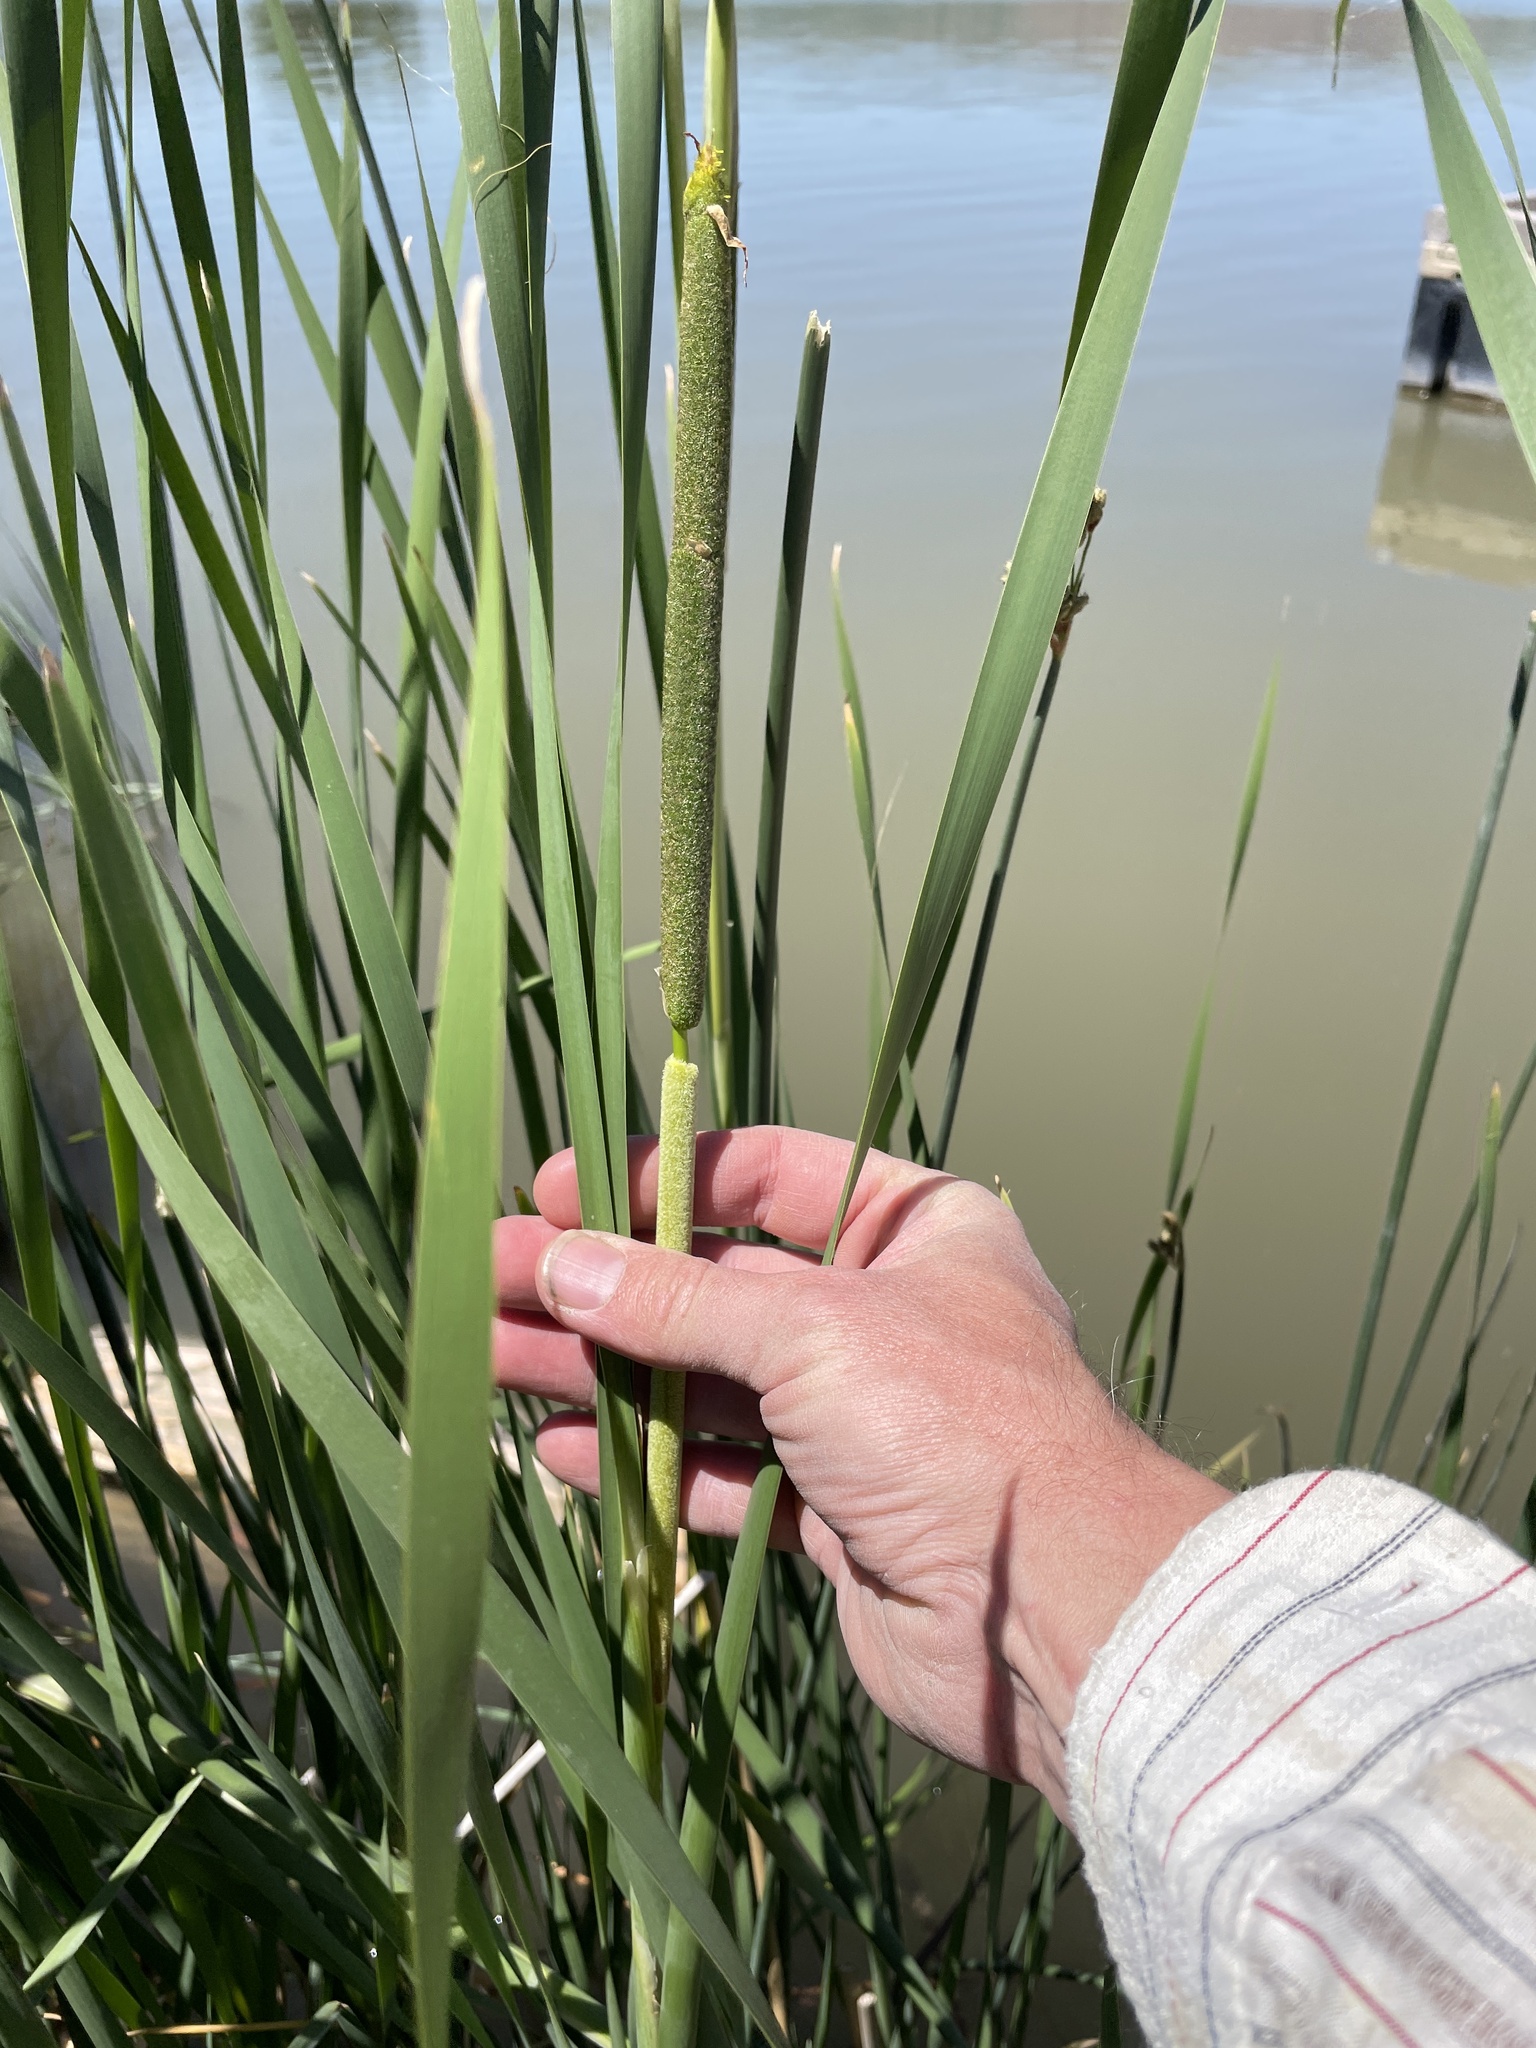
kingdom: Plantae
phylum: Tracheophyta
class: Liliopsida
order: Poales
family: Typhaceae
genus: Typha
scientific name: Typha angustifolia
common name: Lesser bulrush
